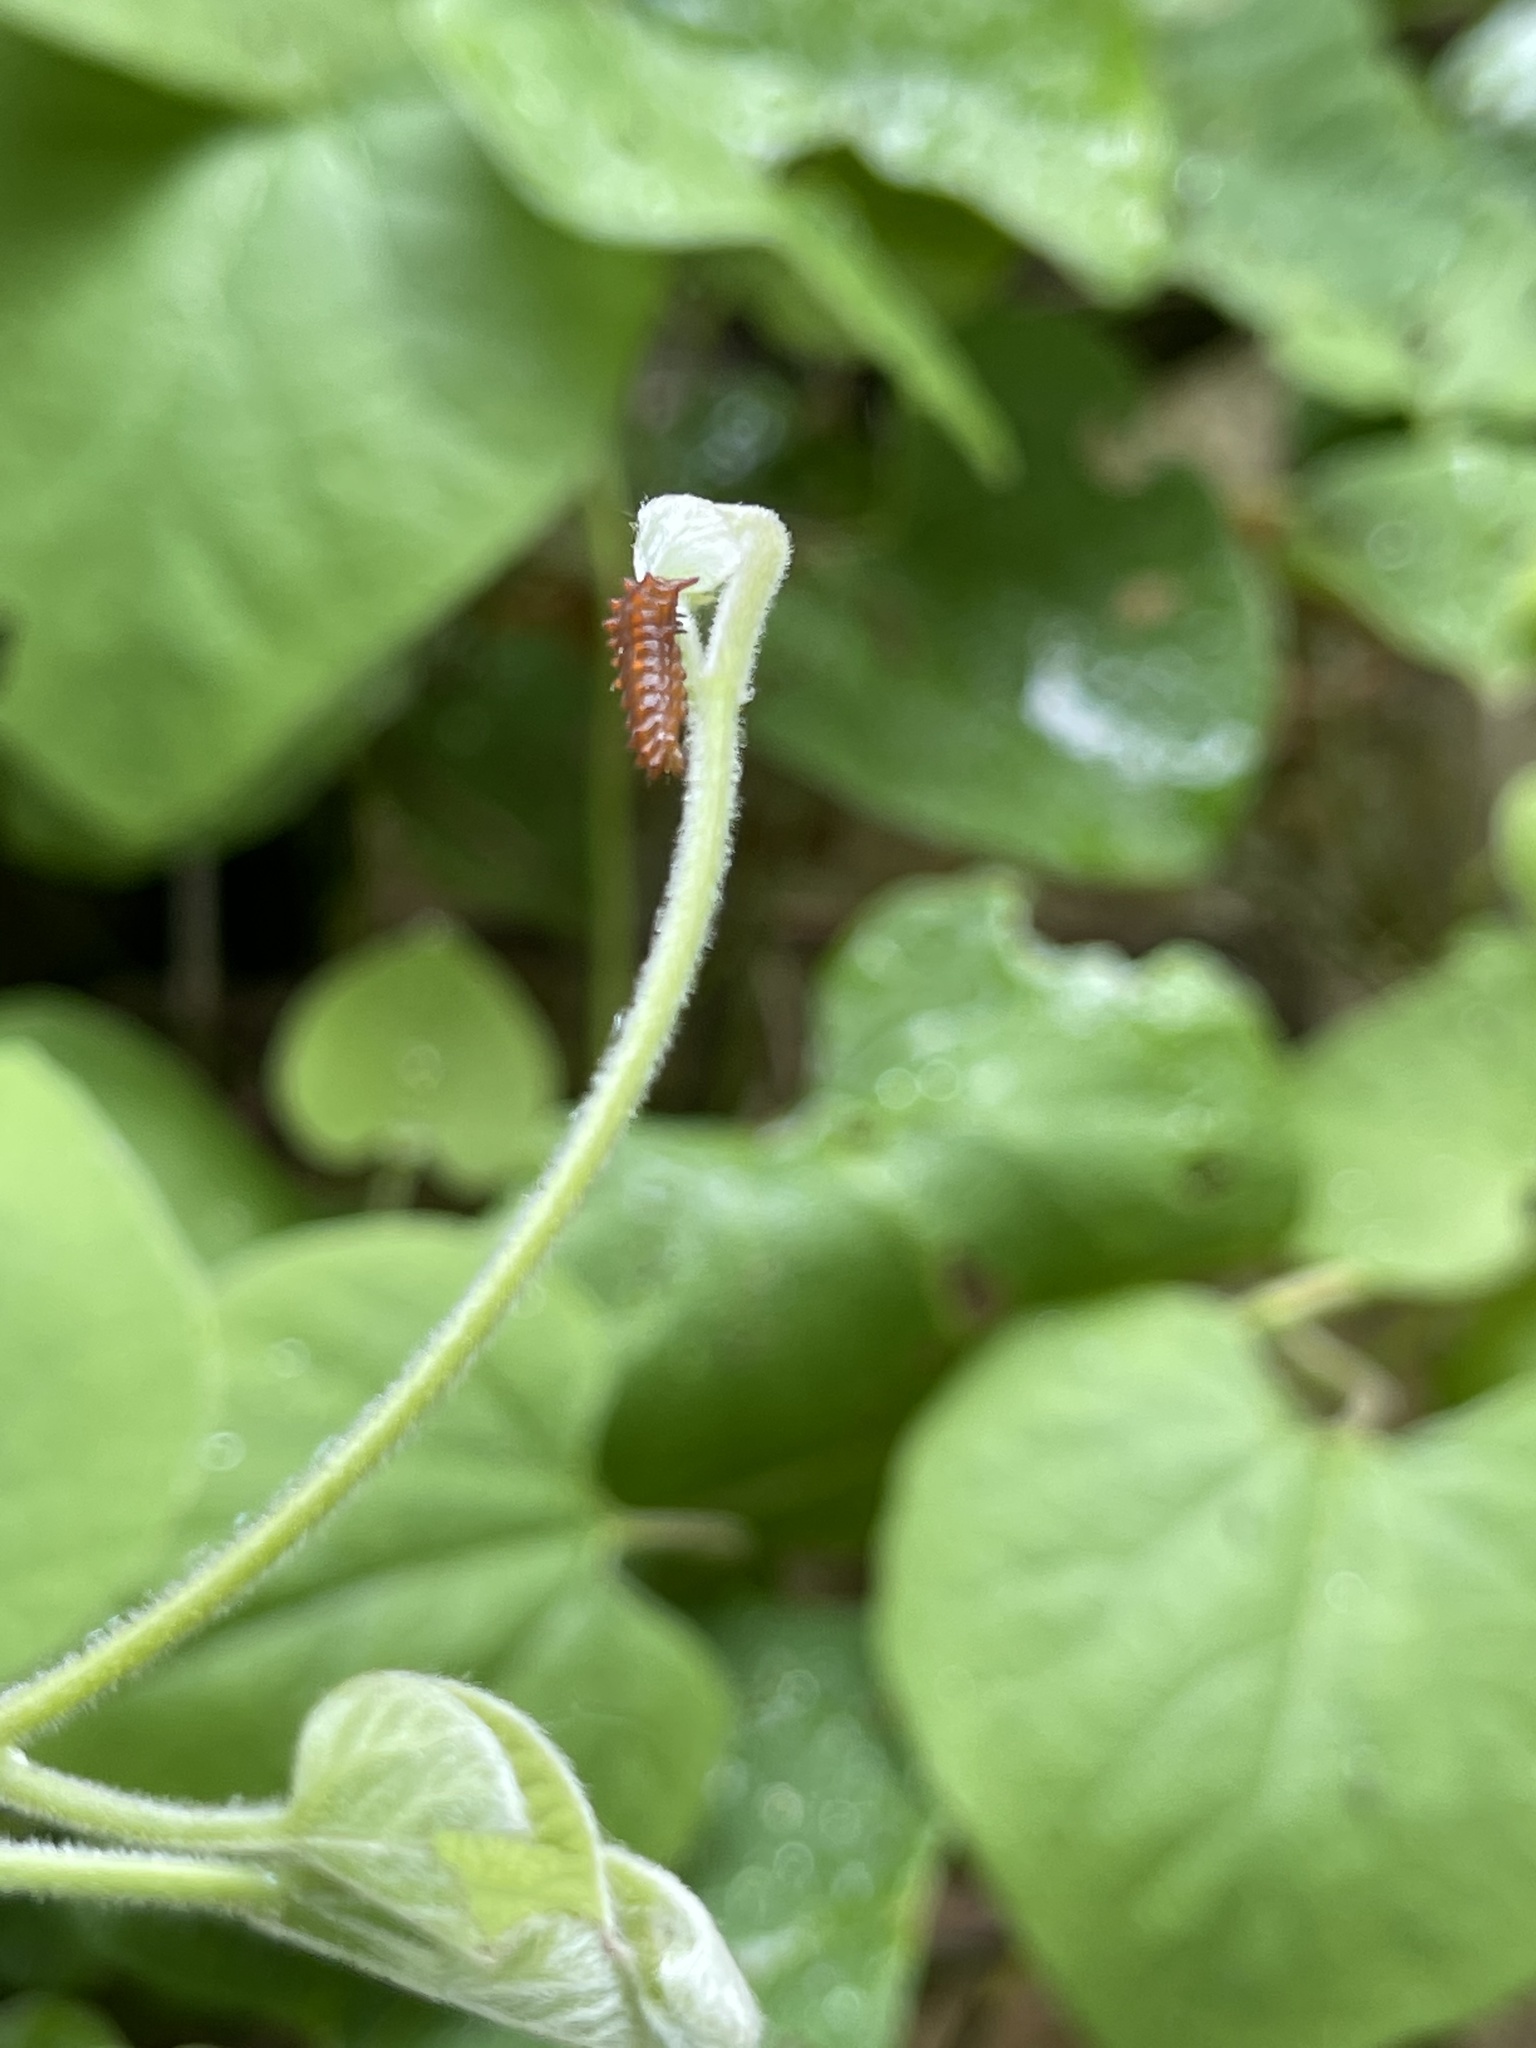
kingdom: Animalia
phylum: Arthropoda
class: Insecta
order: Lepidoptera
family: Papilionidae
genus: Battus
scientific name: Battus philenor
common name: Pipevine swallowtail
